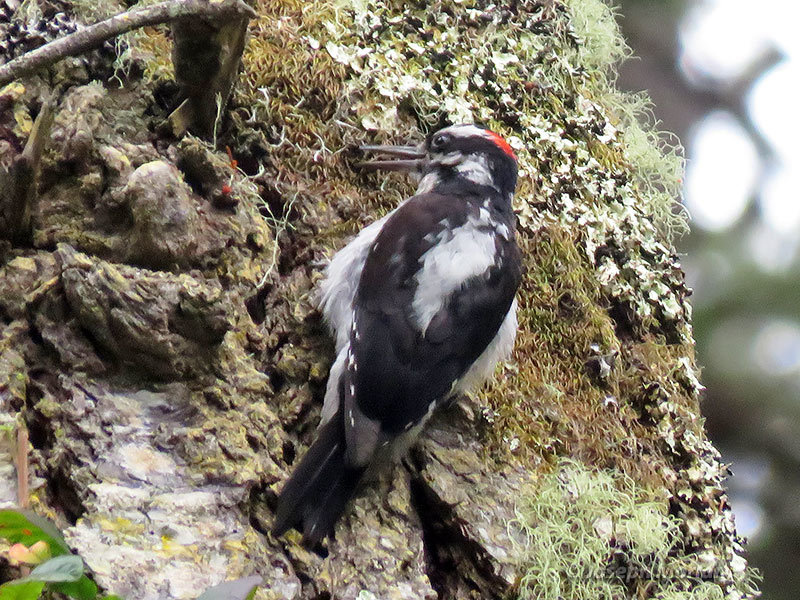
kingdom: Animalia
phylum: Chordata
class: Aves
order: Piciformes
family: Picidae
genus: Leuconotopicus
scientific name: Leuconotopicus villosus
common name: Hairy woodpecker
